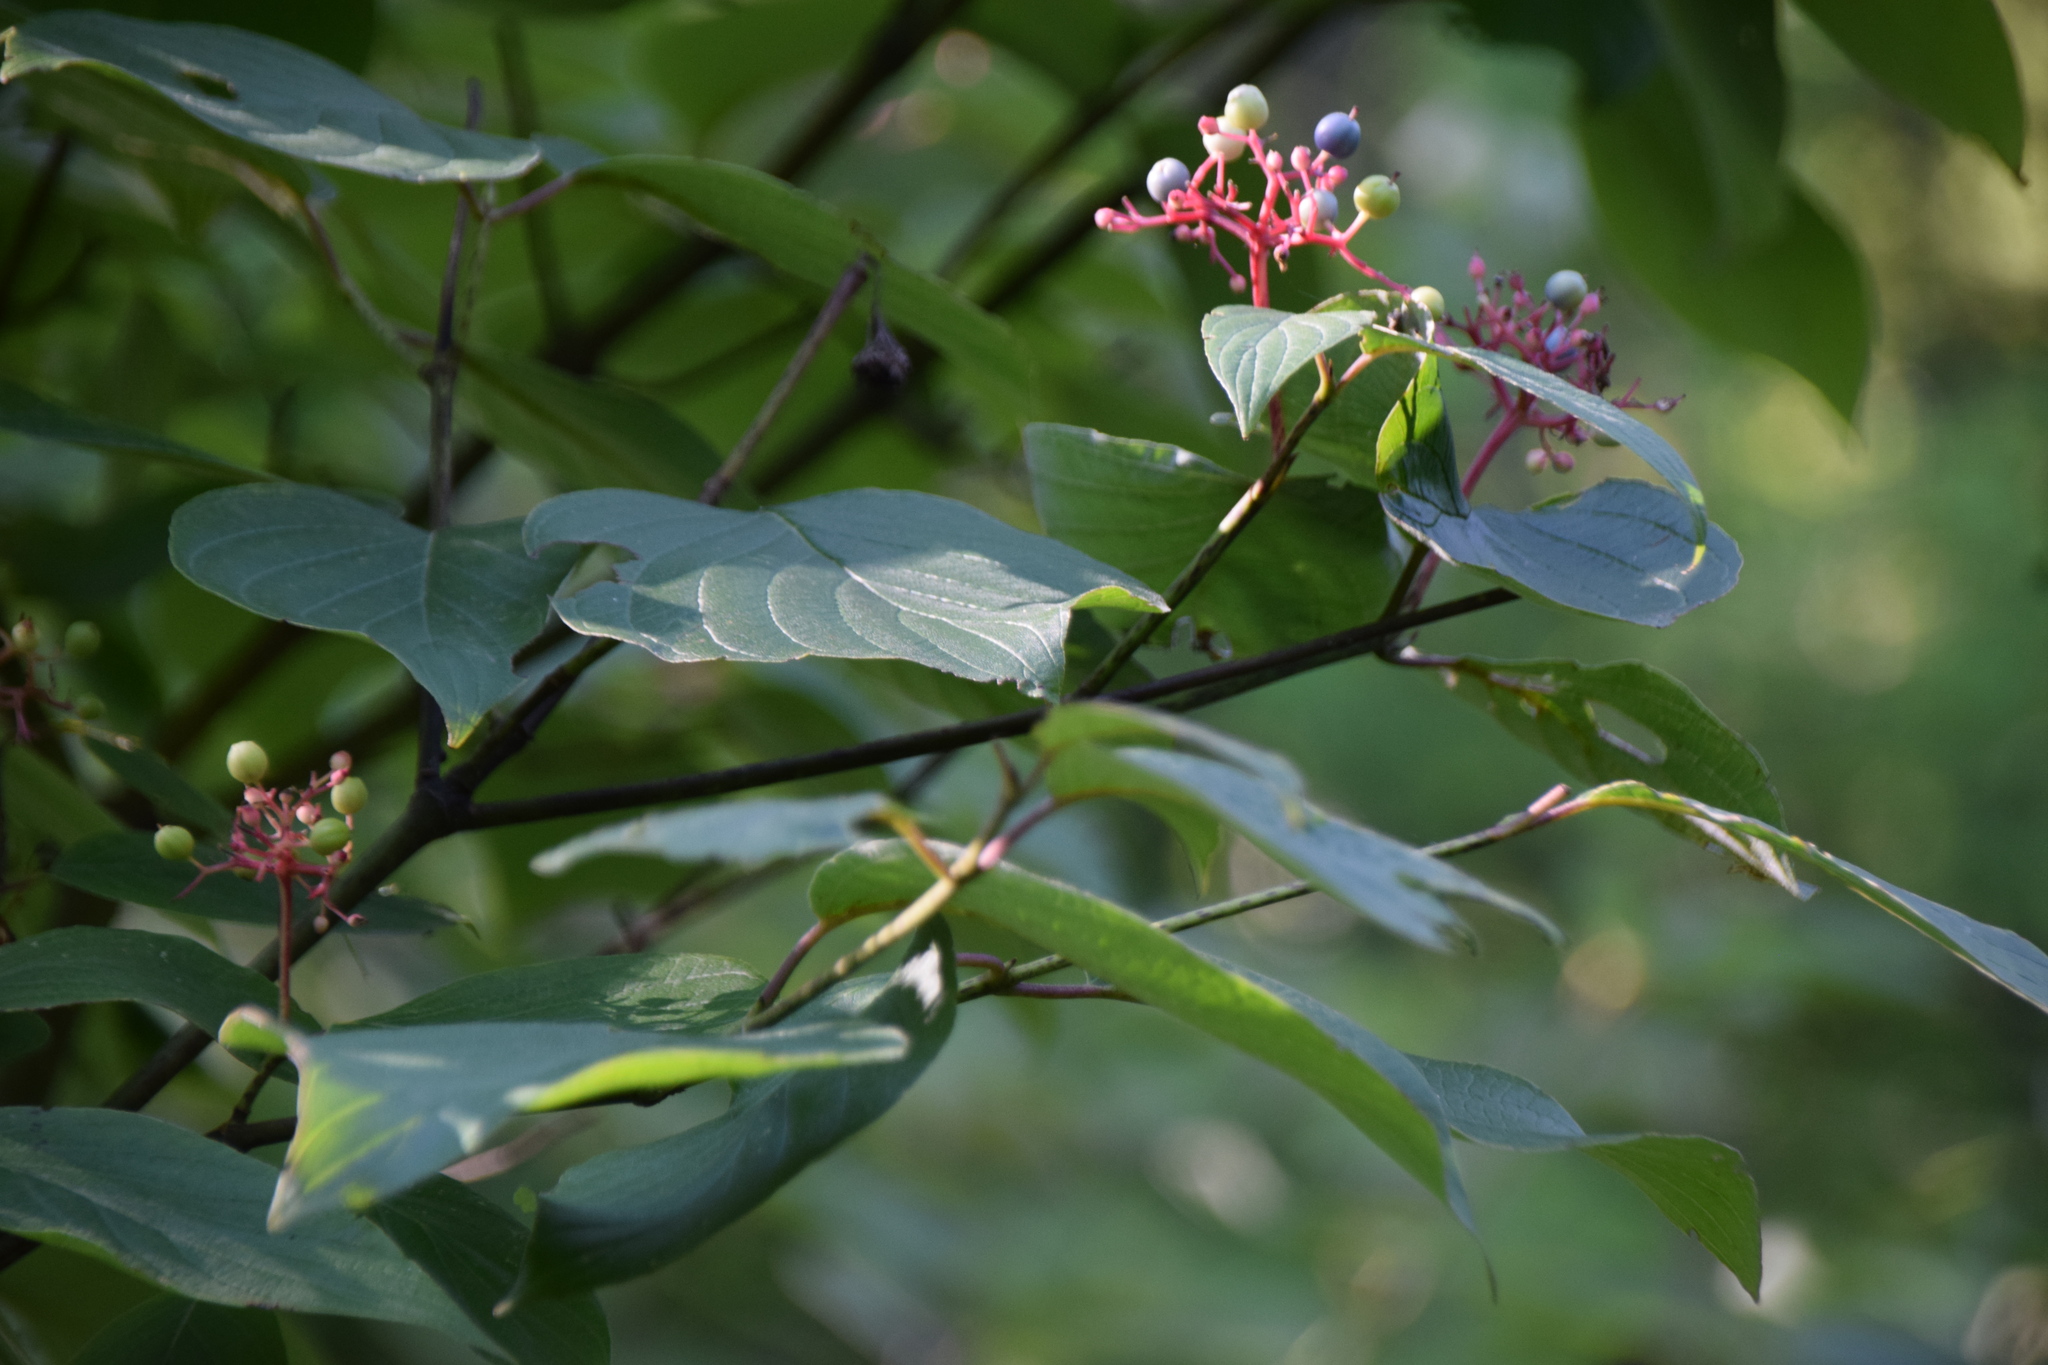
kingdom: Plantae
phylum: Tracheophyta
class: Magnoliopsida
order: Cornales
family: Cornaceae
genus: Cornus
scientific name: Cornus rugosa
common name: Round-leaf dogwood
